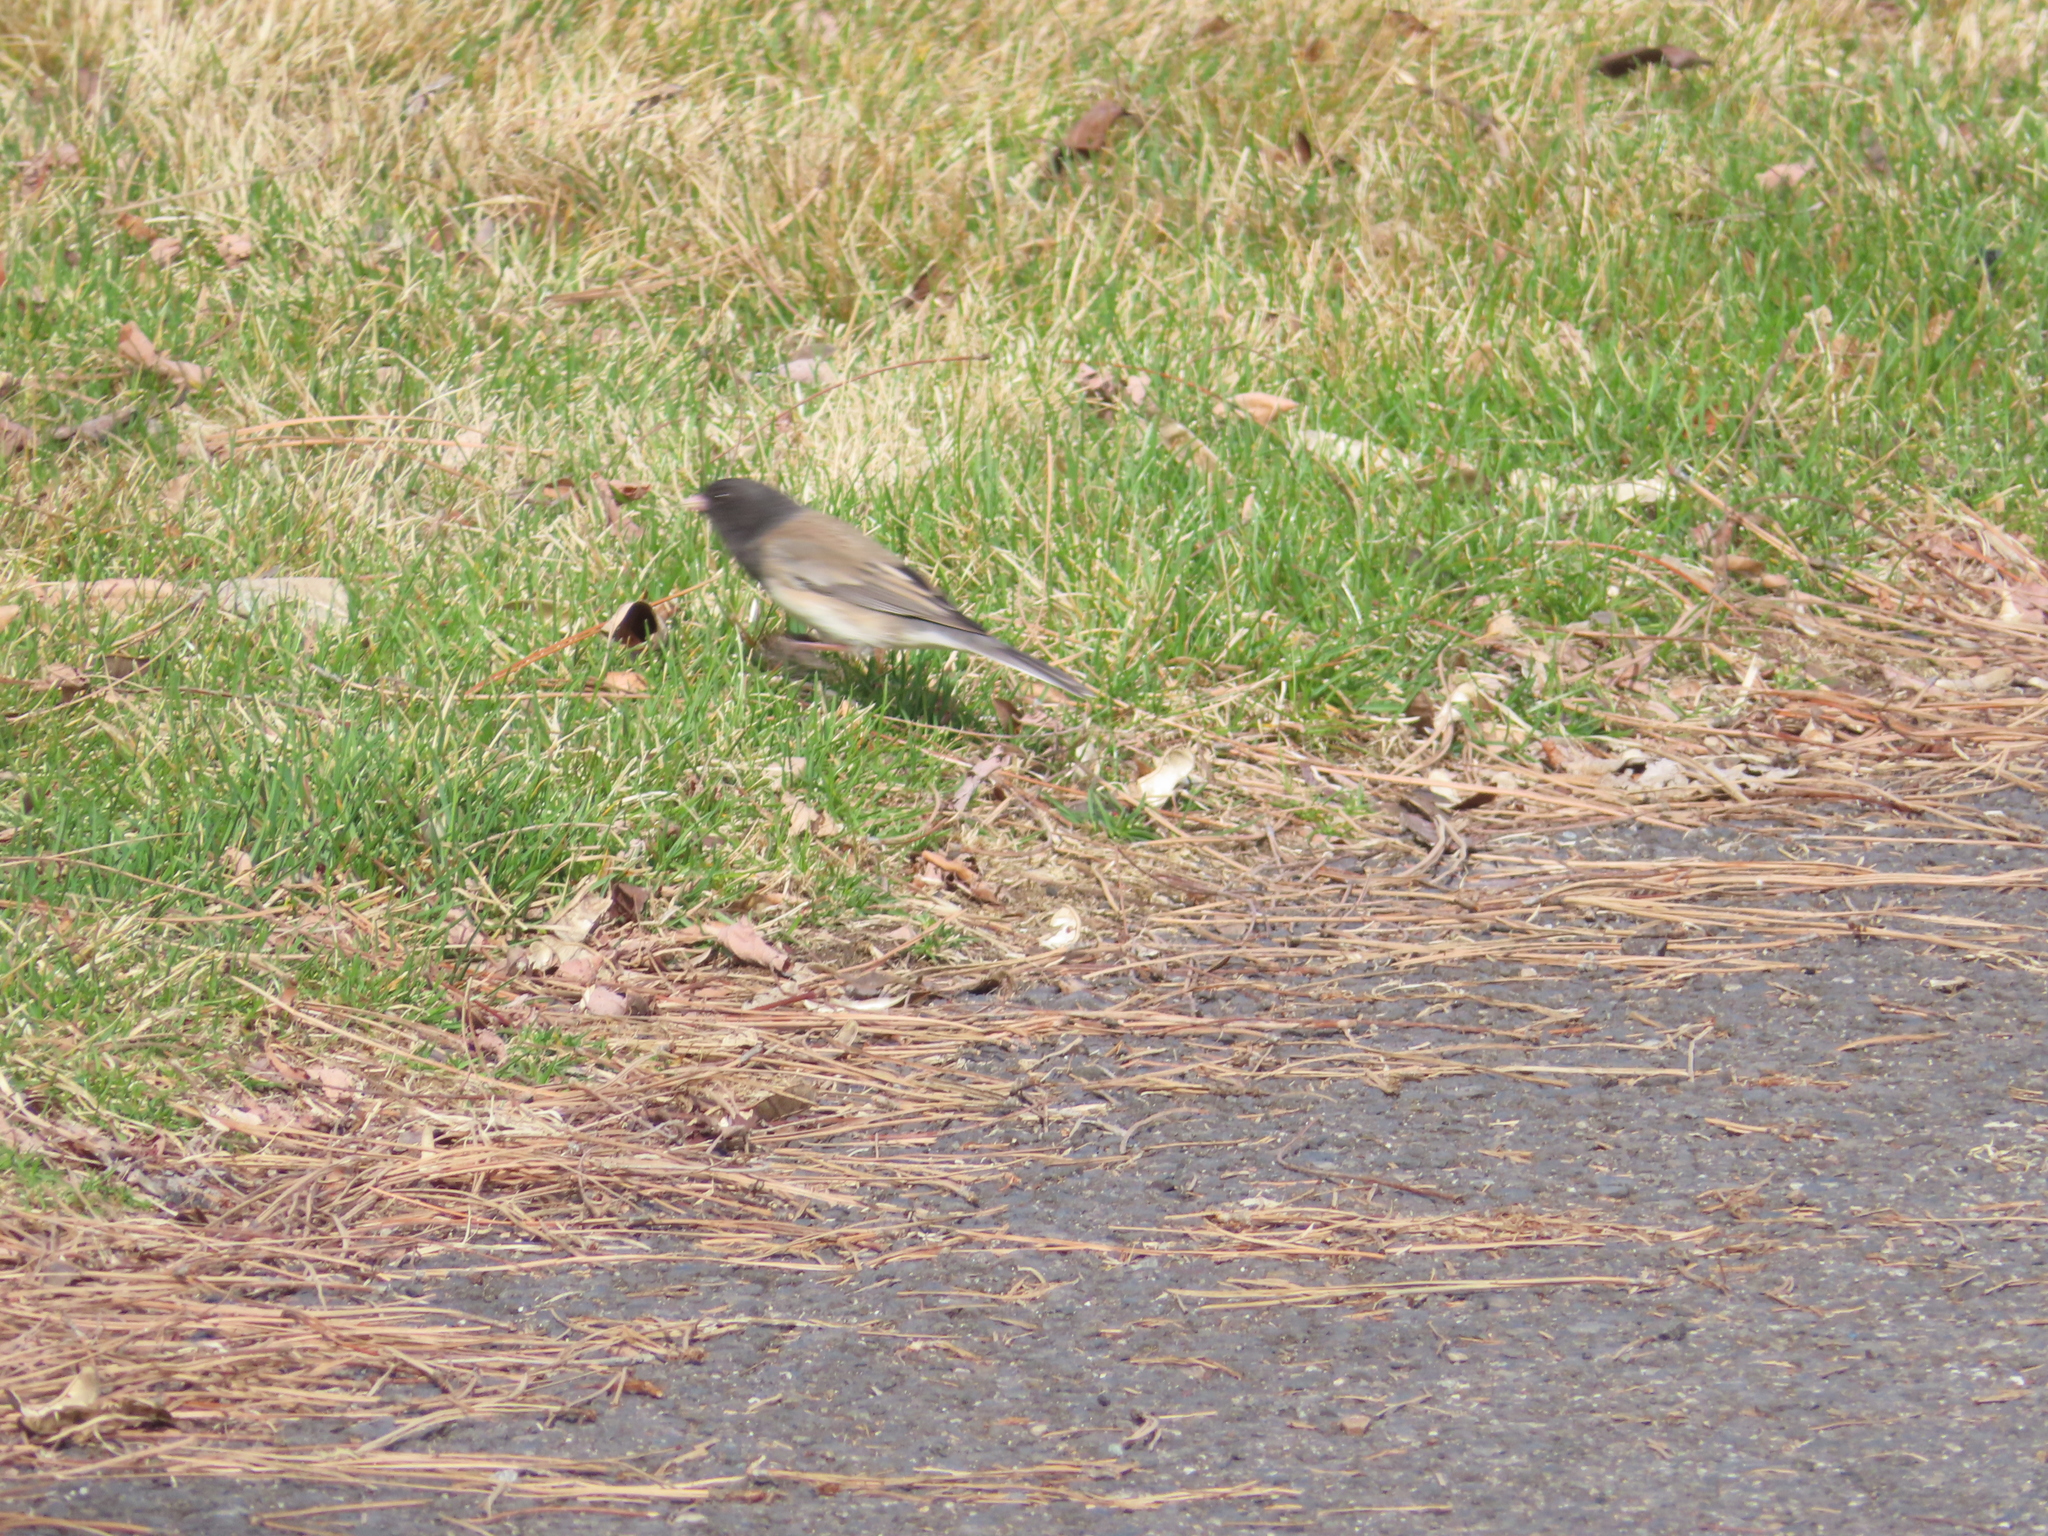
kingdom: Animalia
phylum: Chordata
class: Aves
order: Passeriformes
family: Passerellidae
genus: Junco
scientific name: Junco hyemalis
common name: Dark-eyed junco
